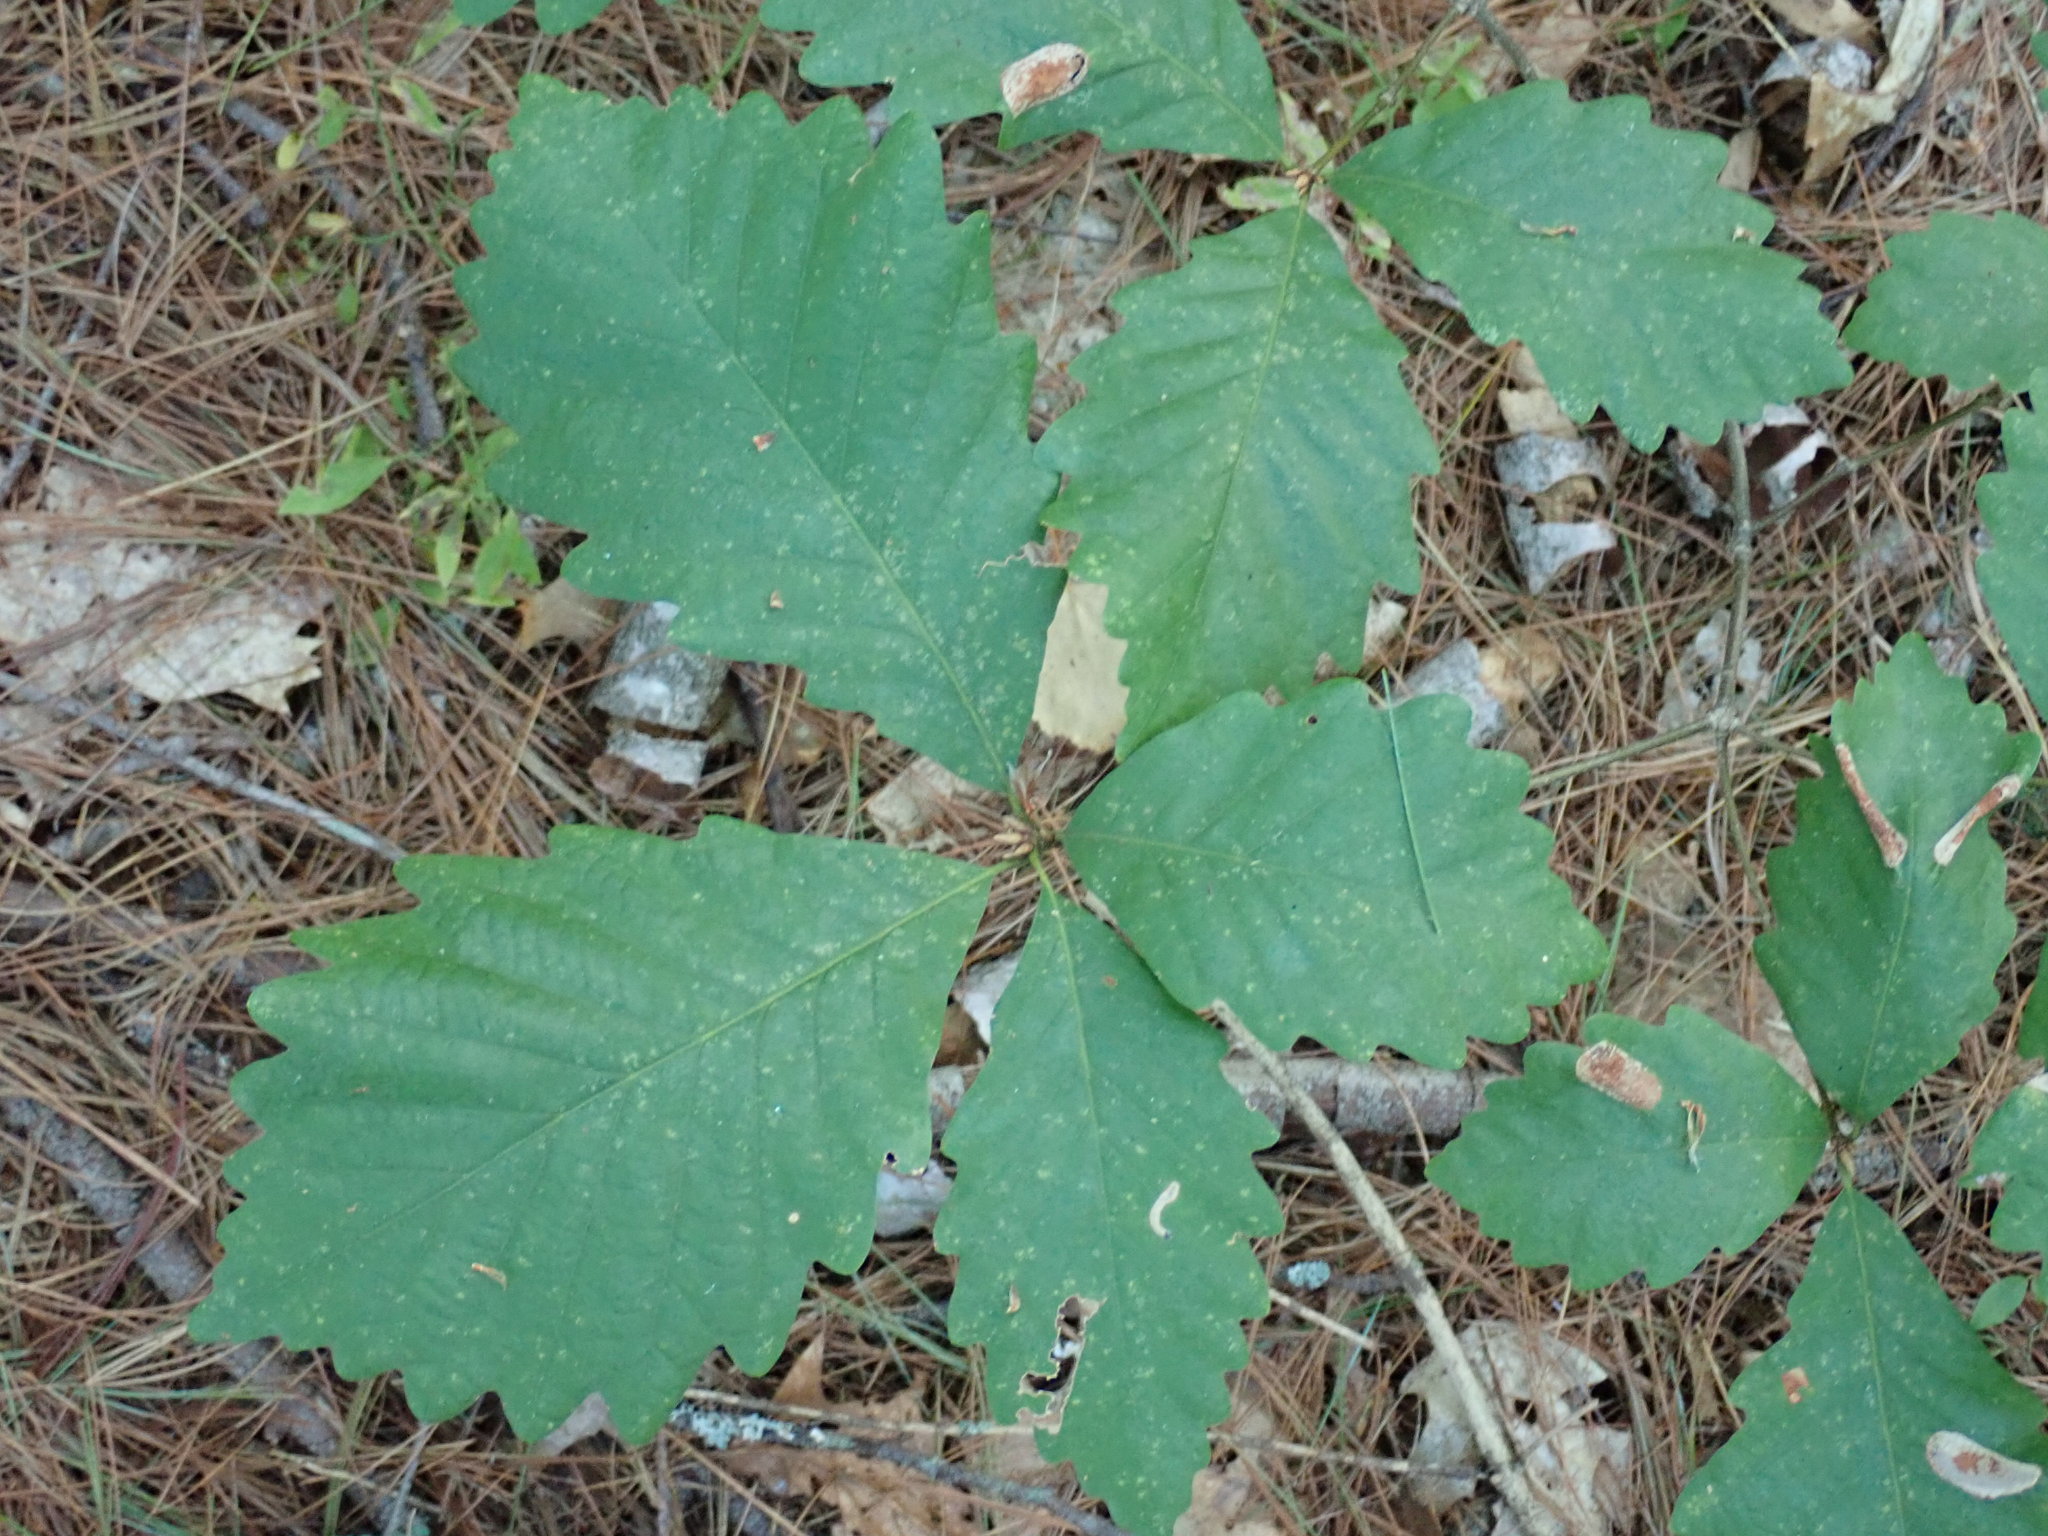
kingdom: Plantae
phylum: Tracheophyta
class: Magnoliopsida
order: Fagales
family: Fagaceae
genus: Quercus
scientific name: Quercus montana
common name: Chestnut oak
